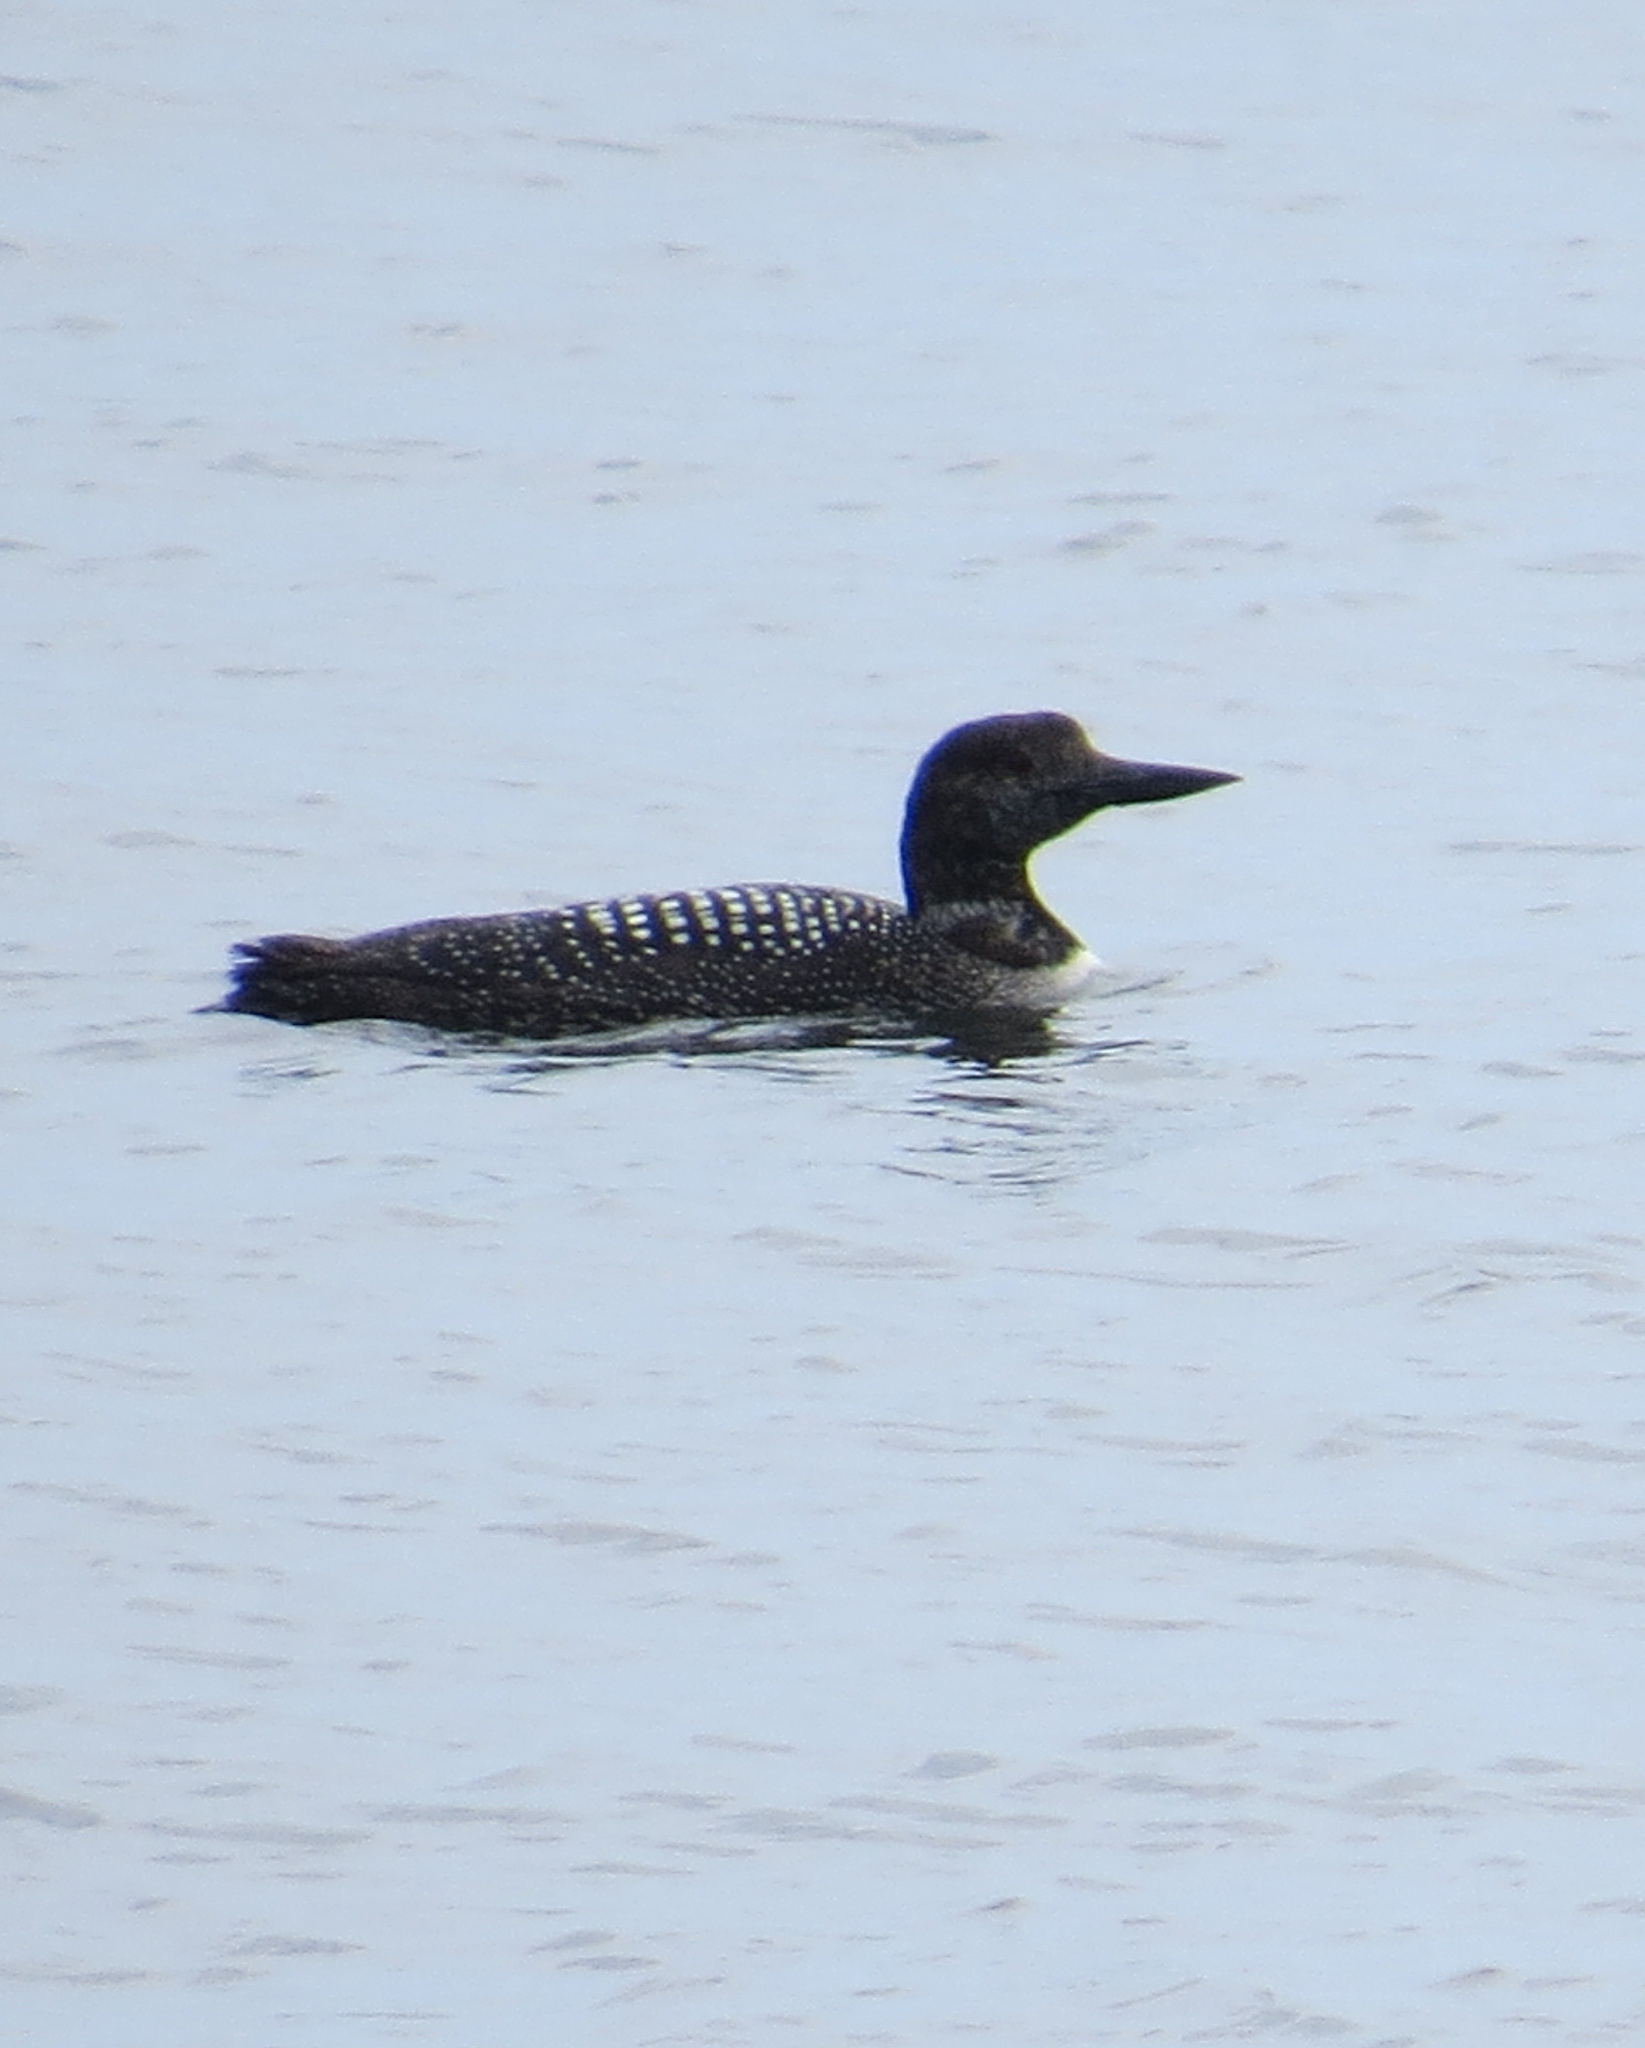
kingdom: Animalia
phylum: Chordata
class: Aves
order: Gaviiformes
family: Gaviidae
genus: Gavia
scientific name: Gavia immer
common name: Common loon
